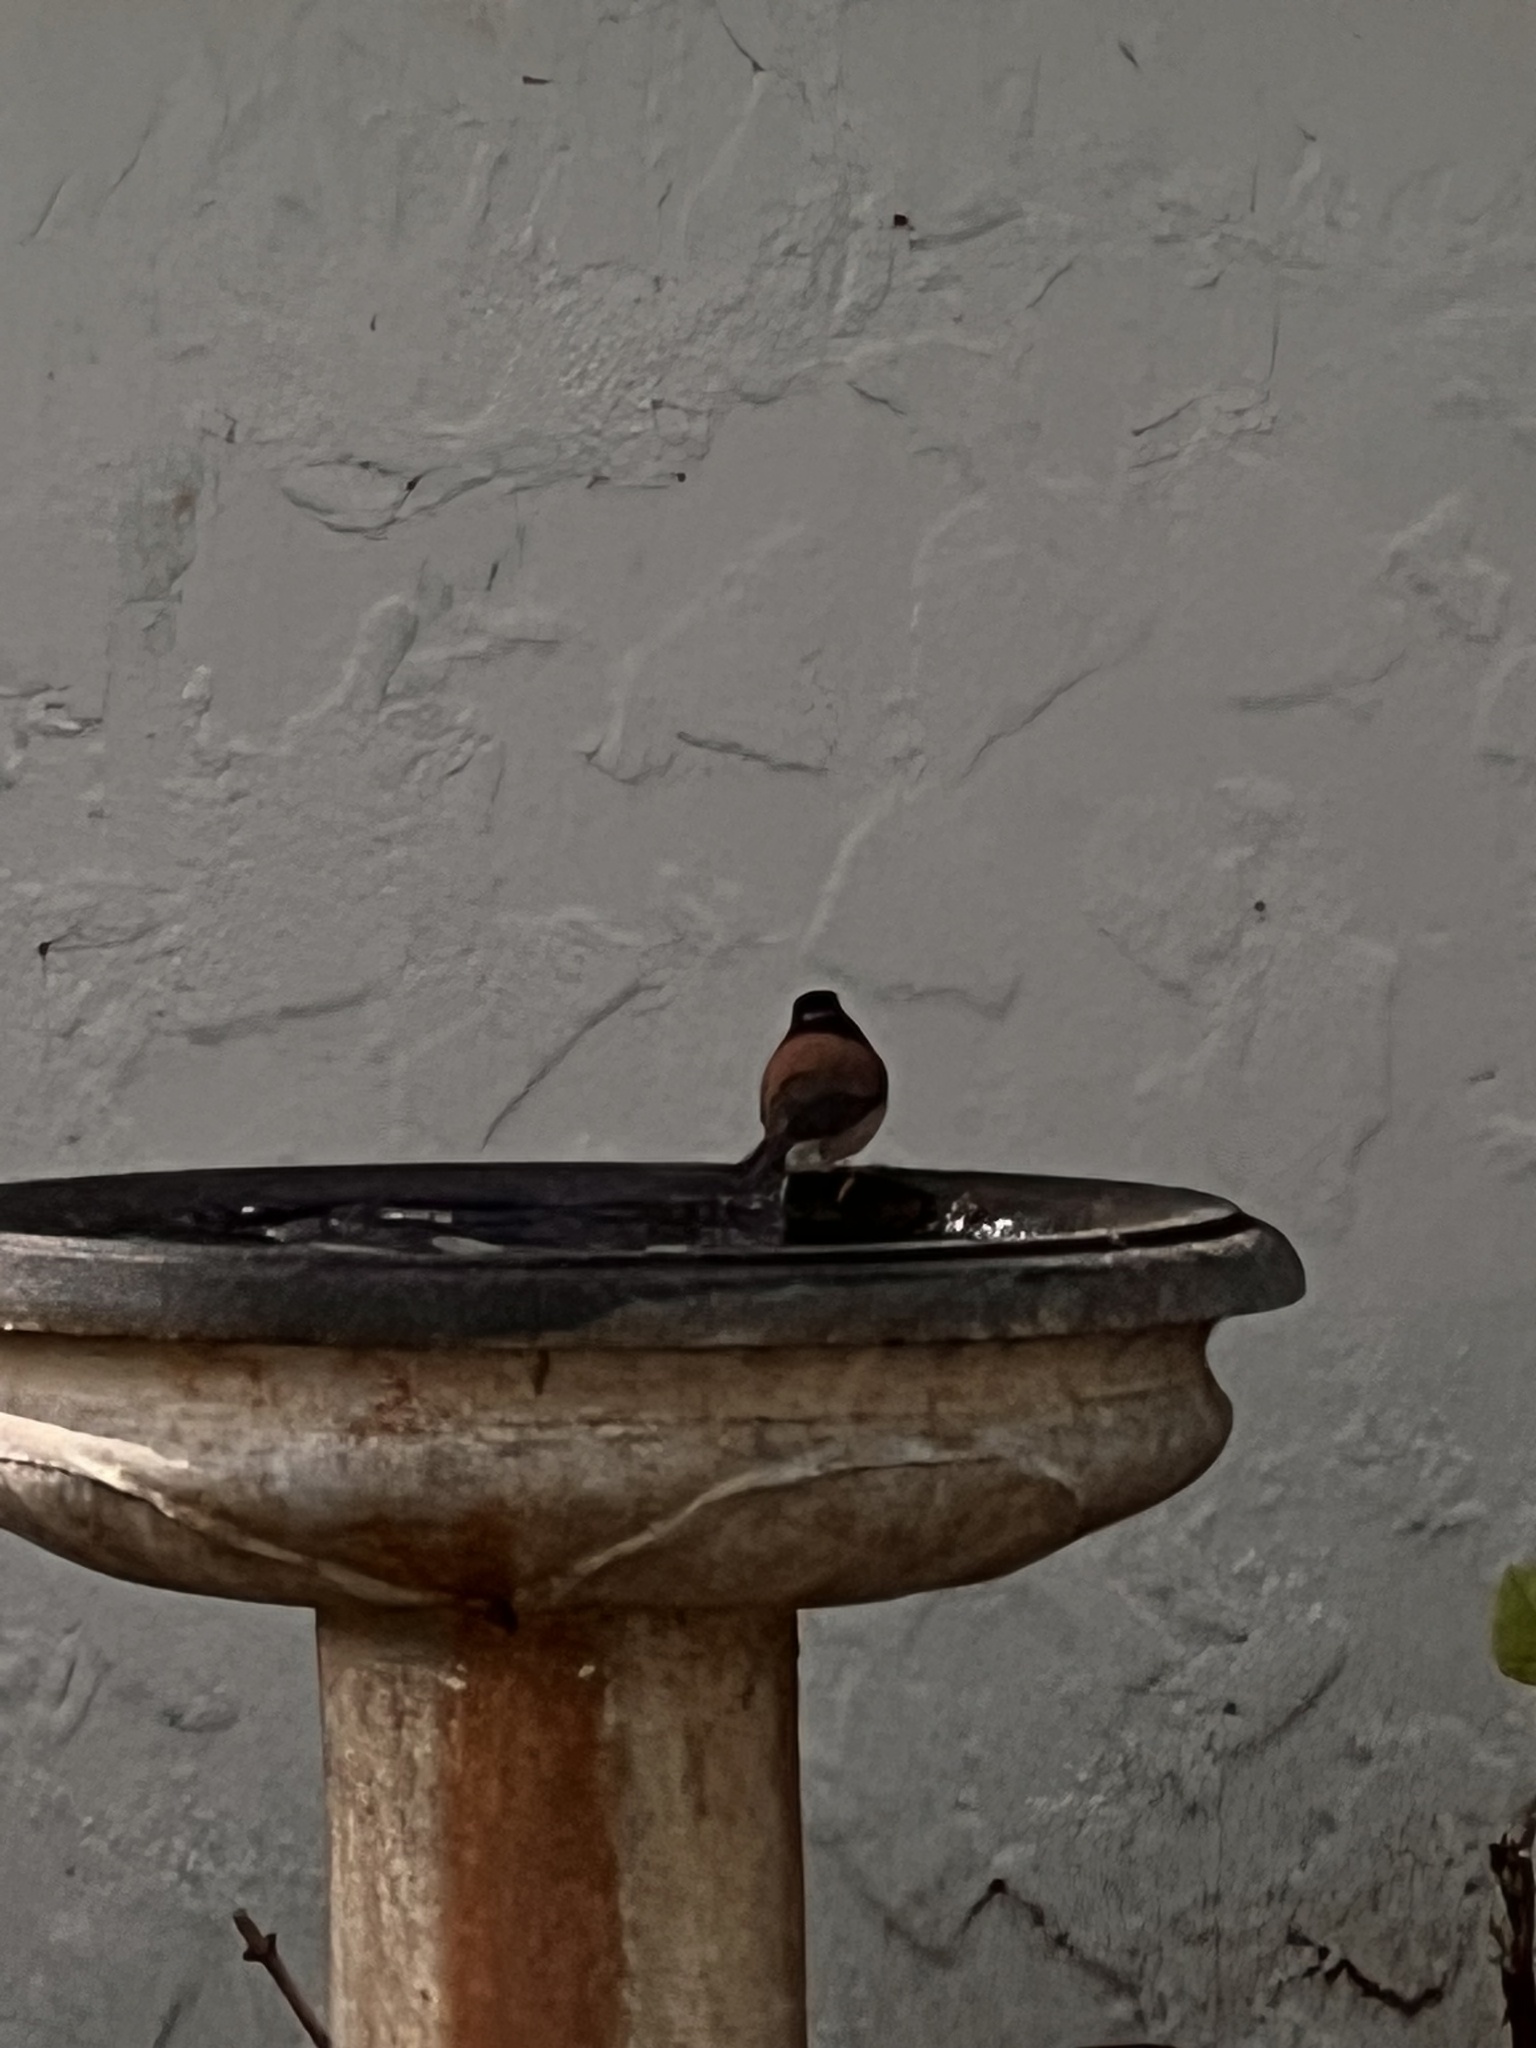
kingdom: Animalia
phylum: Chordata
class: Aves
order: Passeriformes
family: Passerellidae
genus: Junco
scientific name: Junco hyemalis
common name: Dark-eyed junco
